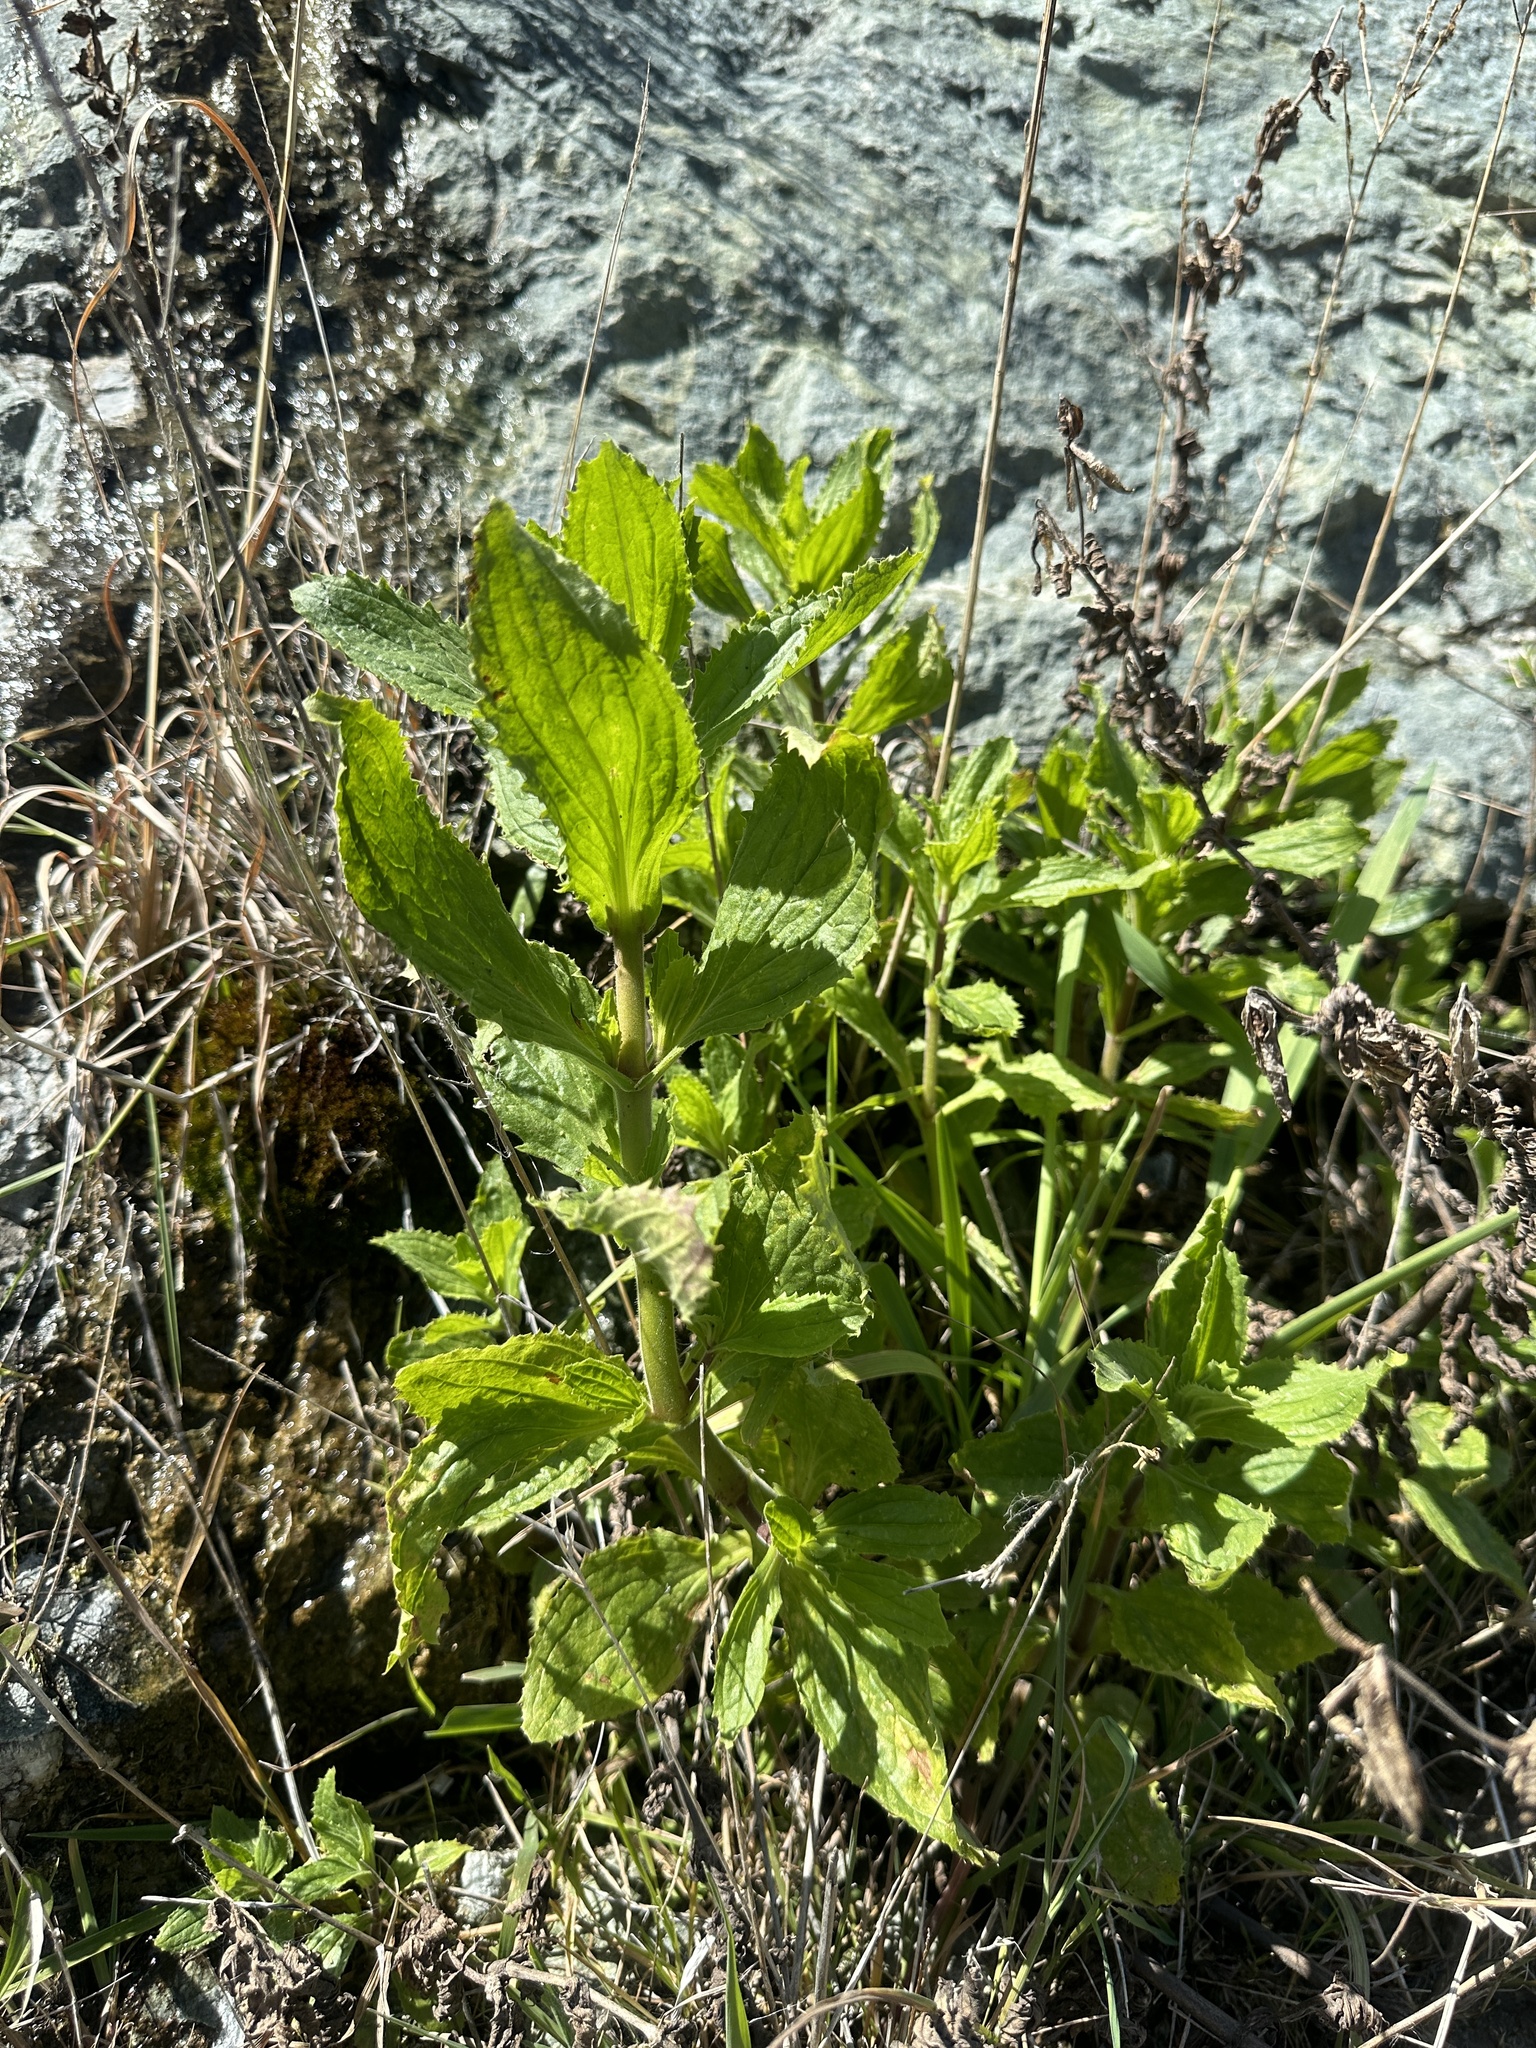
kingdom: Plantae
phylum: Tracheophyta
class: Magnoliopsida
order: Lamiales
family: Phrymaceae
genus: Erythranthe
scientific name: Erythranthe cardinalis
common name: Scarlet monkey-flower
